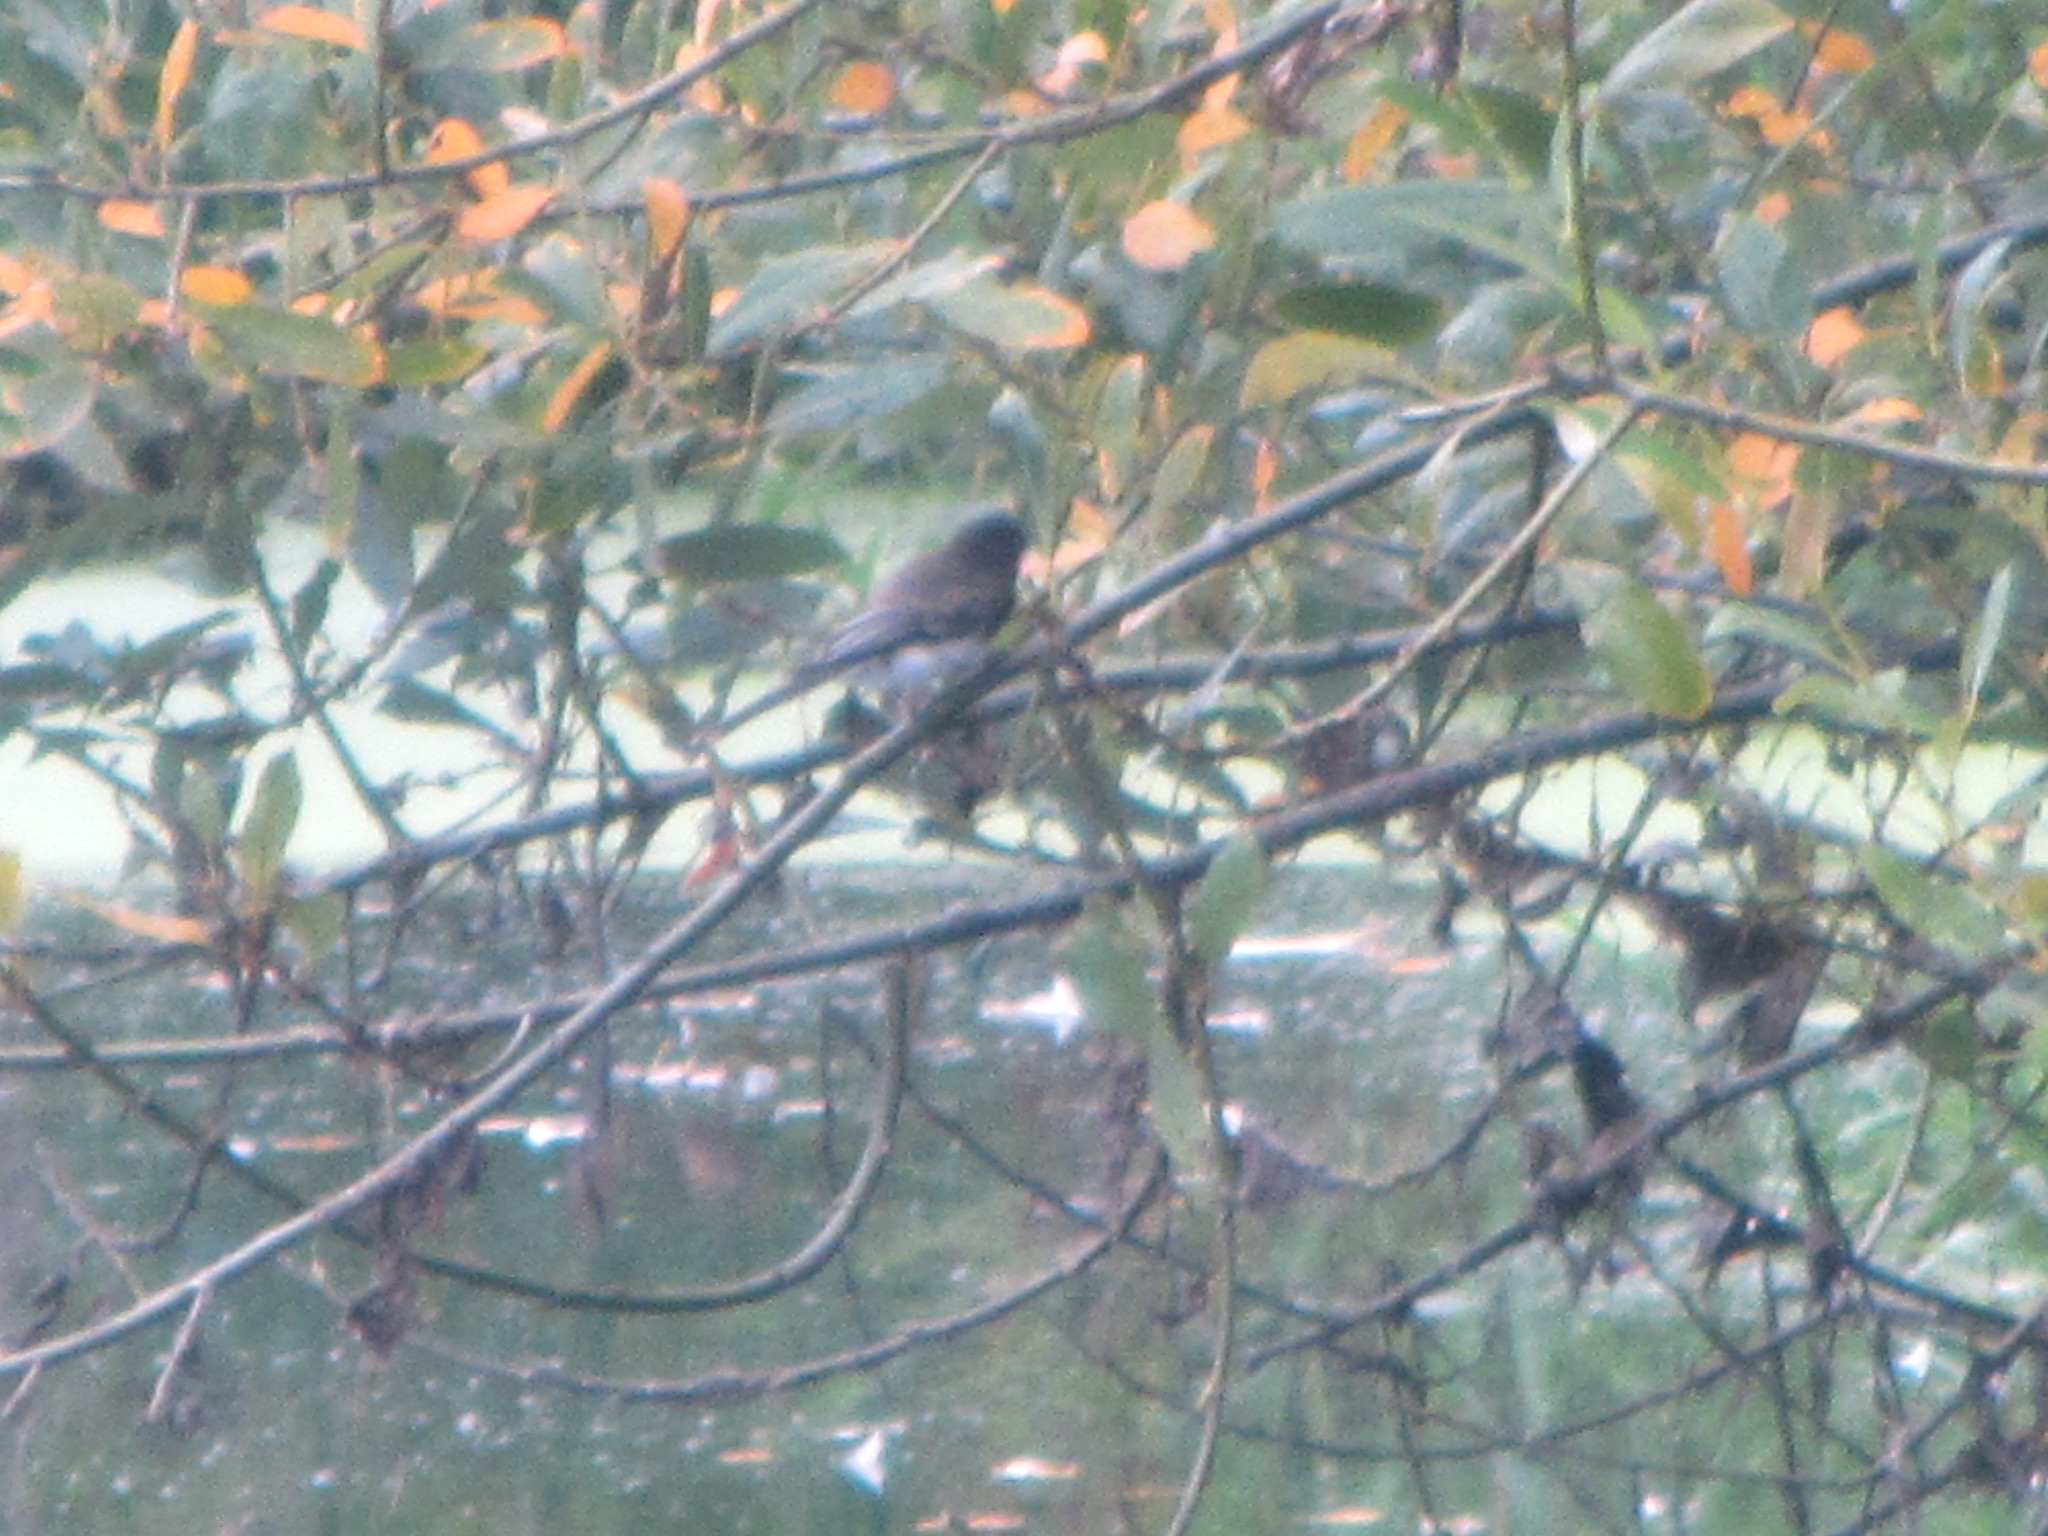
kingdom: Animalia
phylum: Chordata
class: Aves
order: Passeriformes
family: Tyrannidae
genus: Sayornis
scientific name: Sayornis nigricans
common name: Black phoebe
